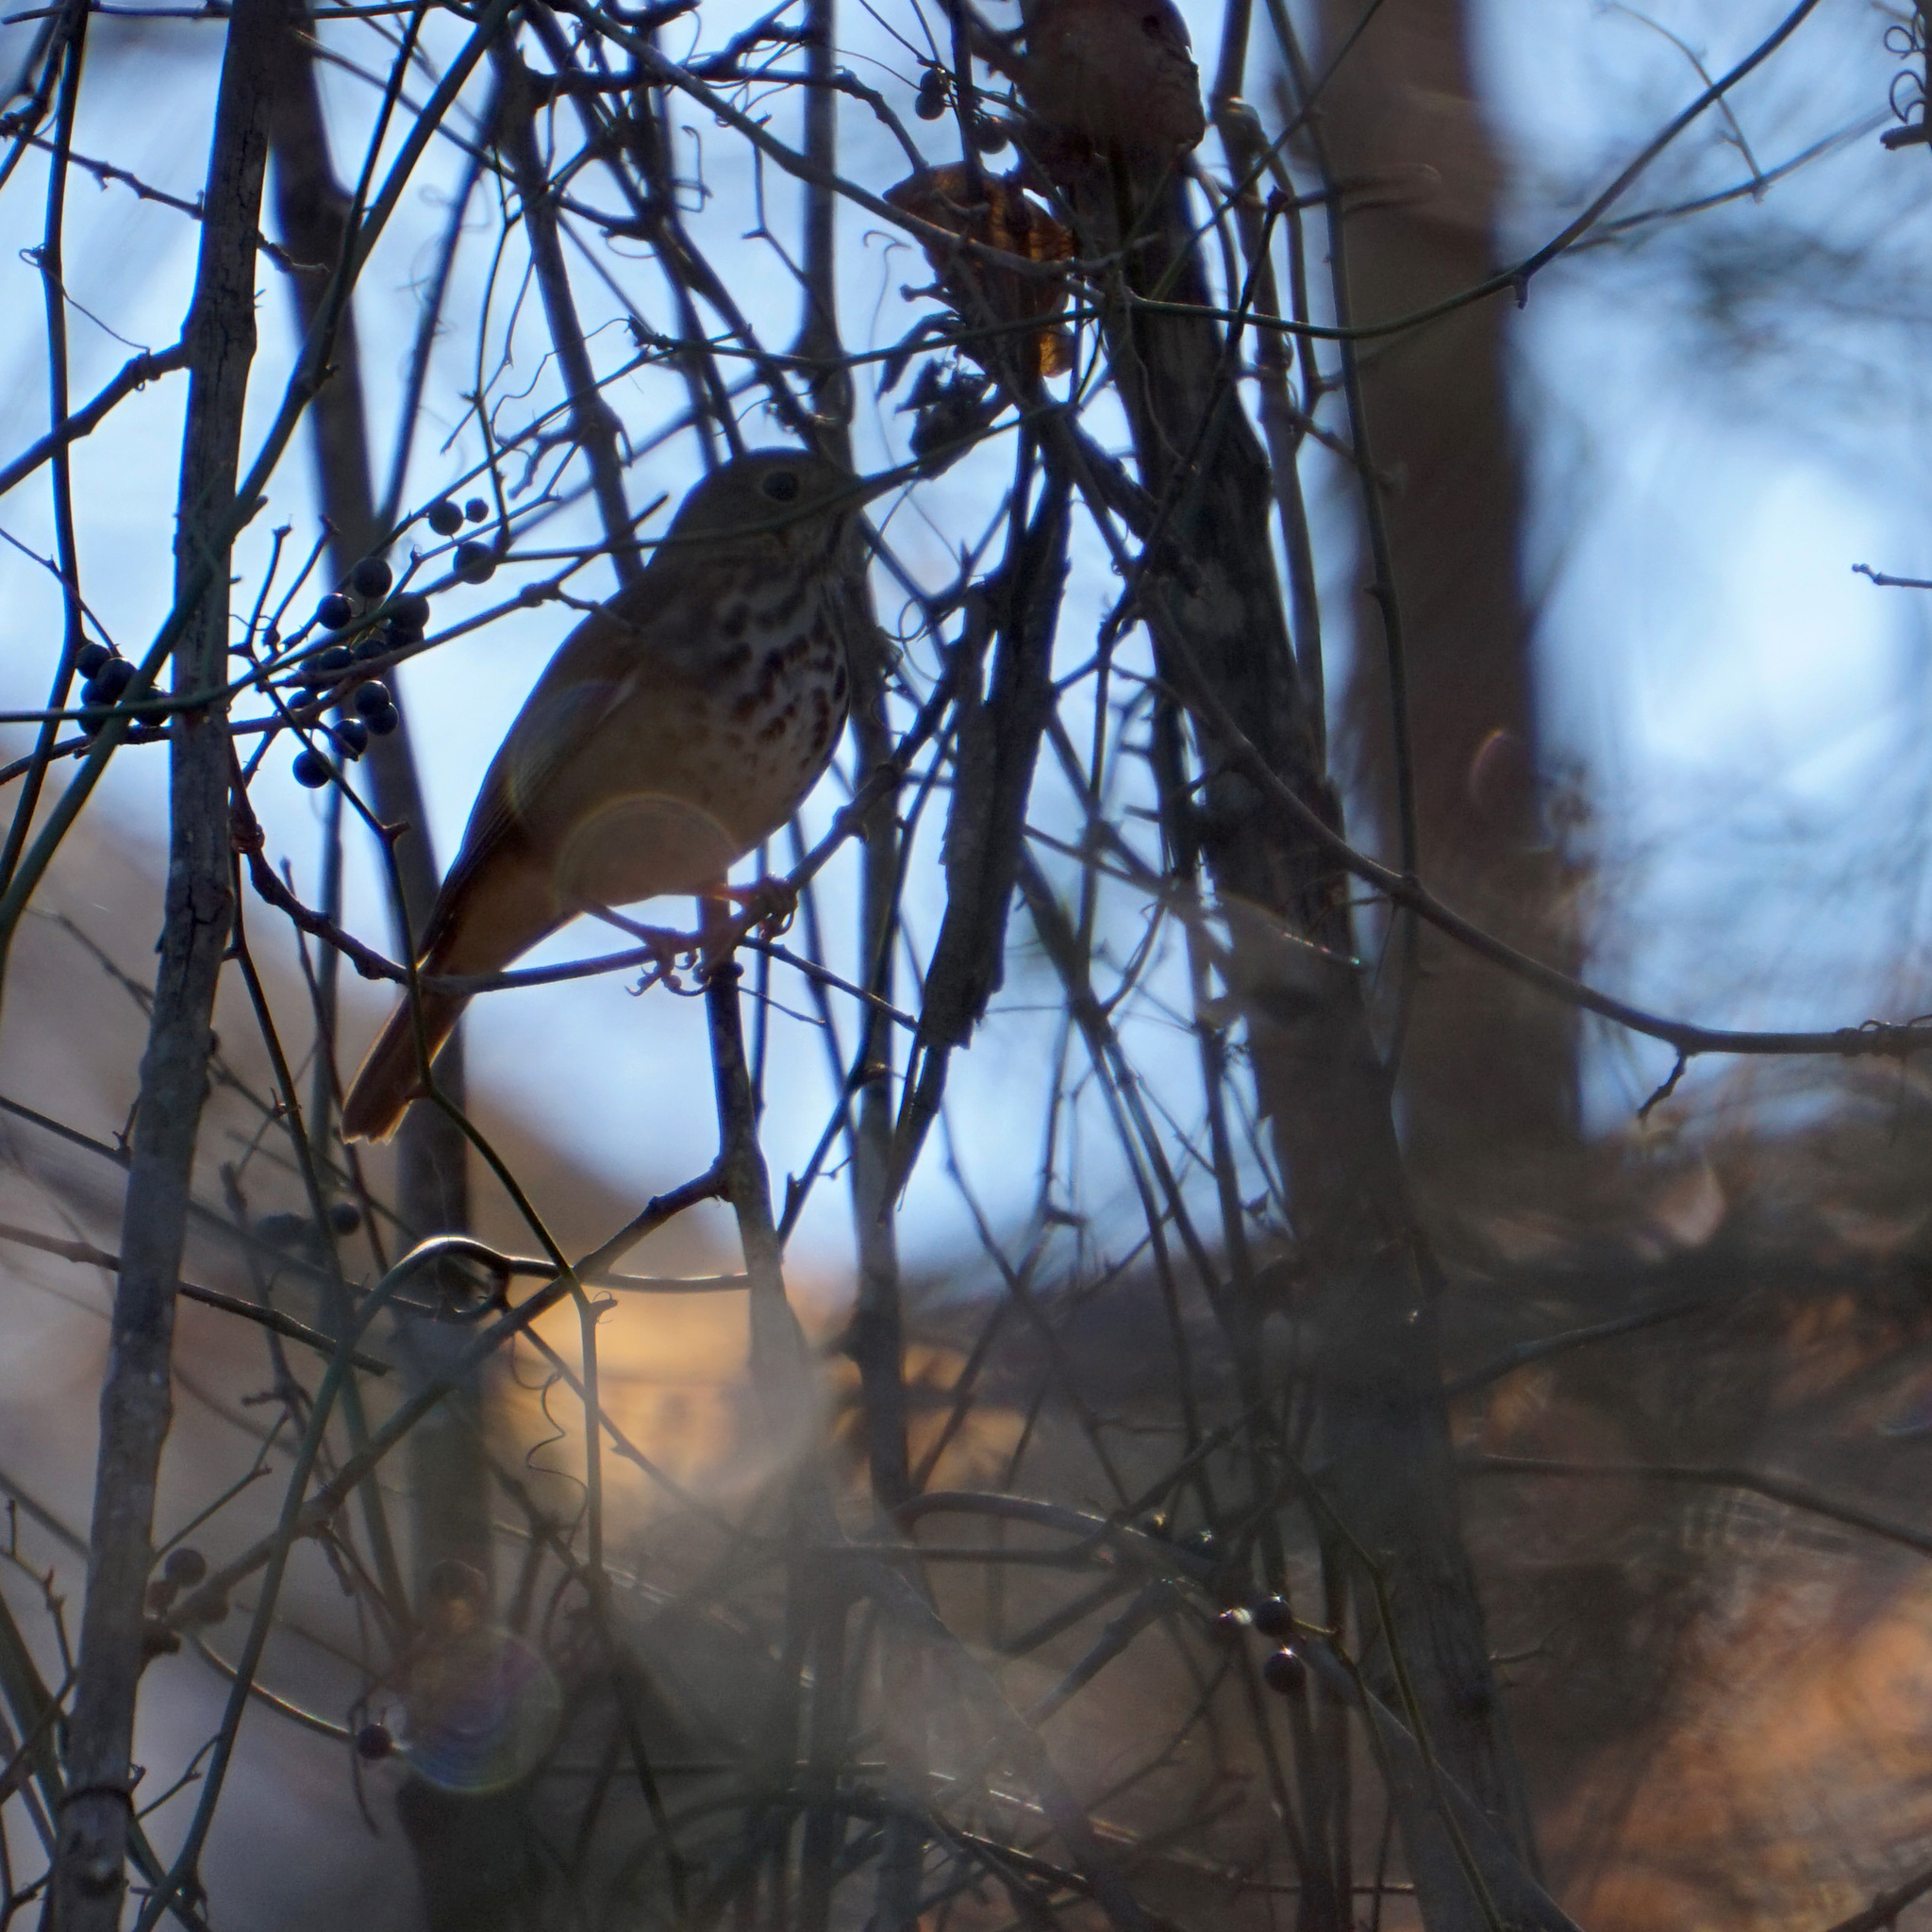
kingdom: Animalia
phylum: Chordata
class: Aves
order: Passeriformes
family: Turdidae
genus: Catharus
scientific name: Catharus guttatus
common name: Hermit thrush
